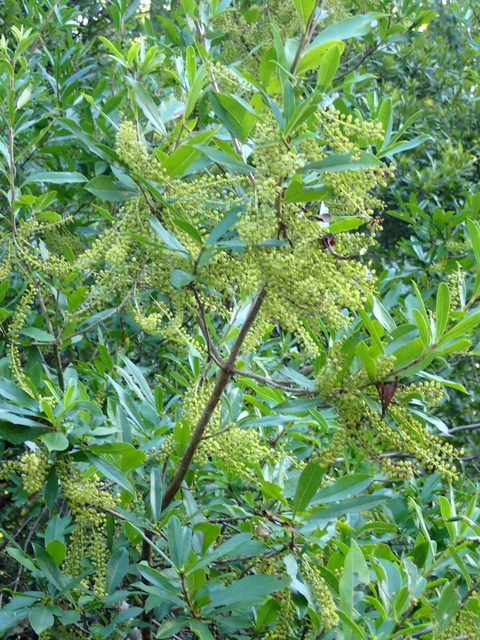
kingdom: Plantae
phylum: Tracheophyta
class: Magnoliopsida
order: Ericales
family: Cyrillaceae
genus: Cyrilla
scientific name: Cyrilla racemiflora
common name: Black titi
